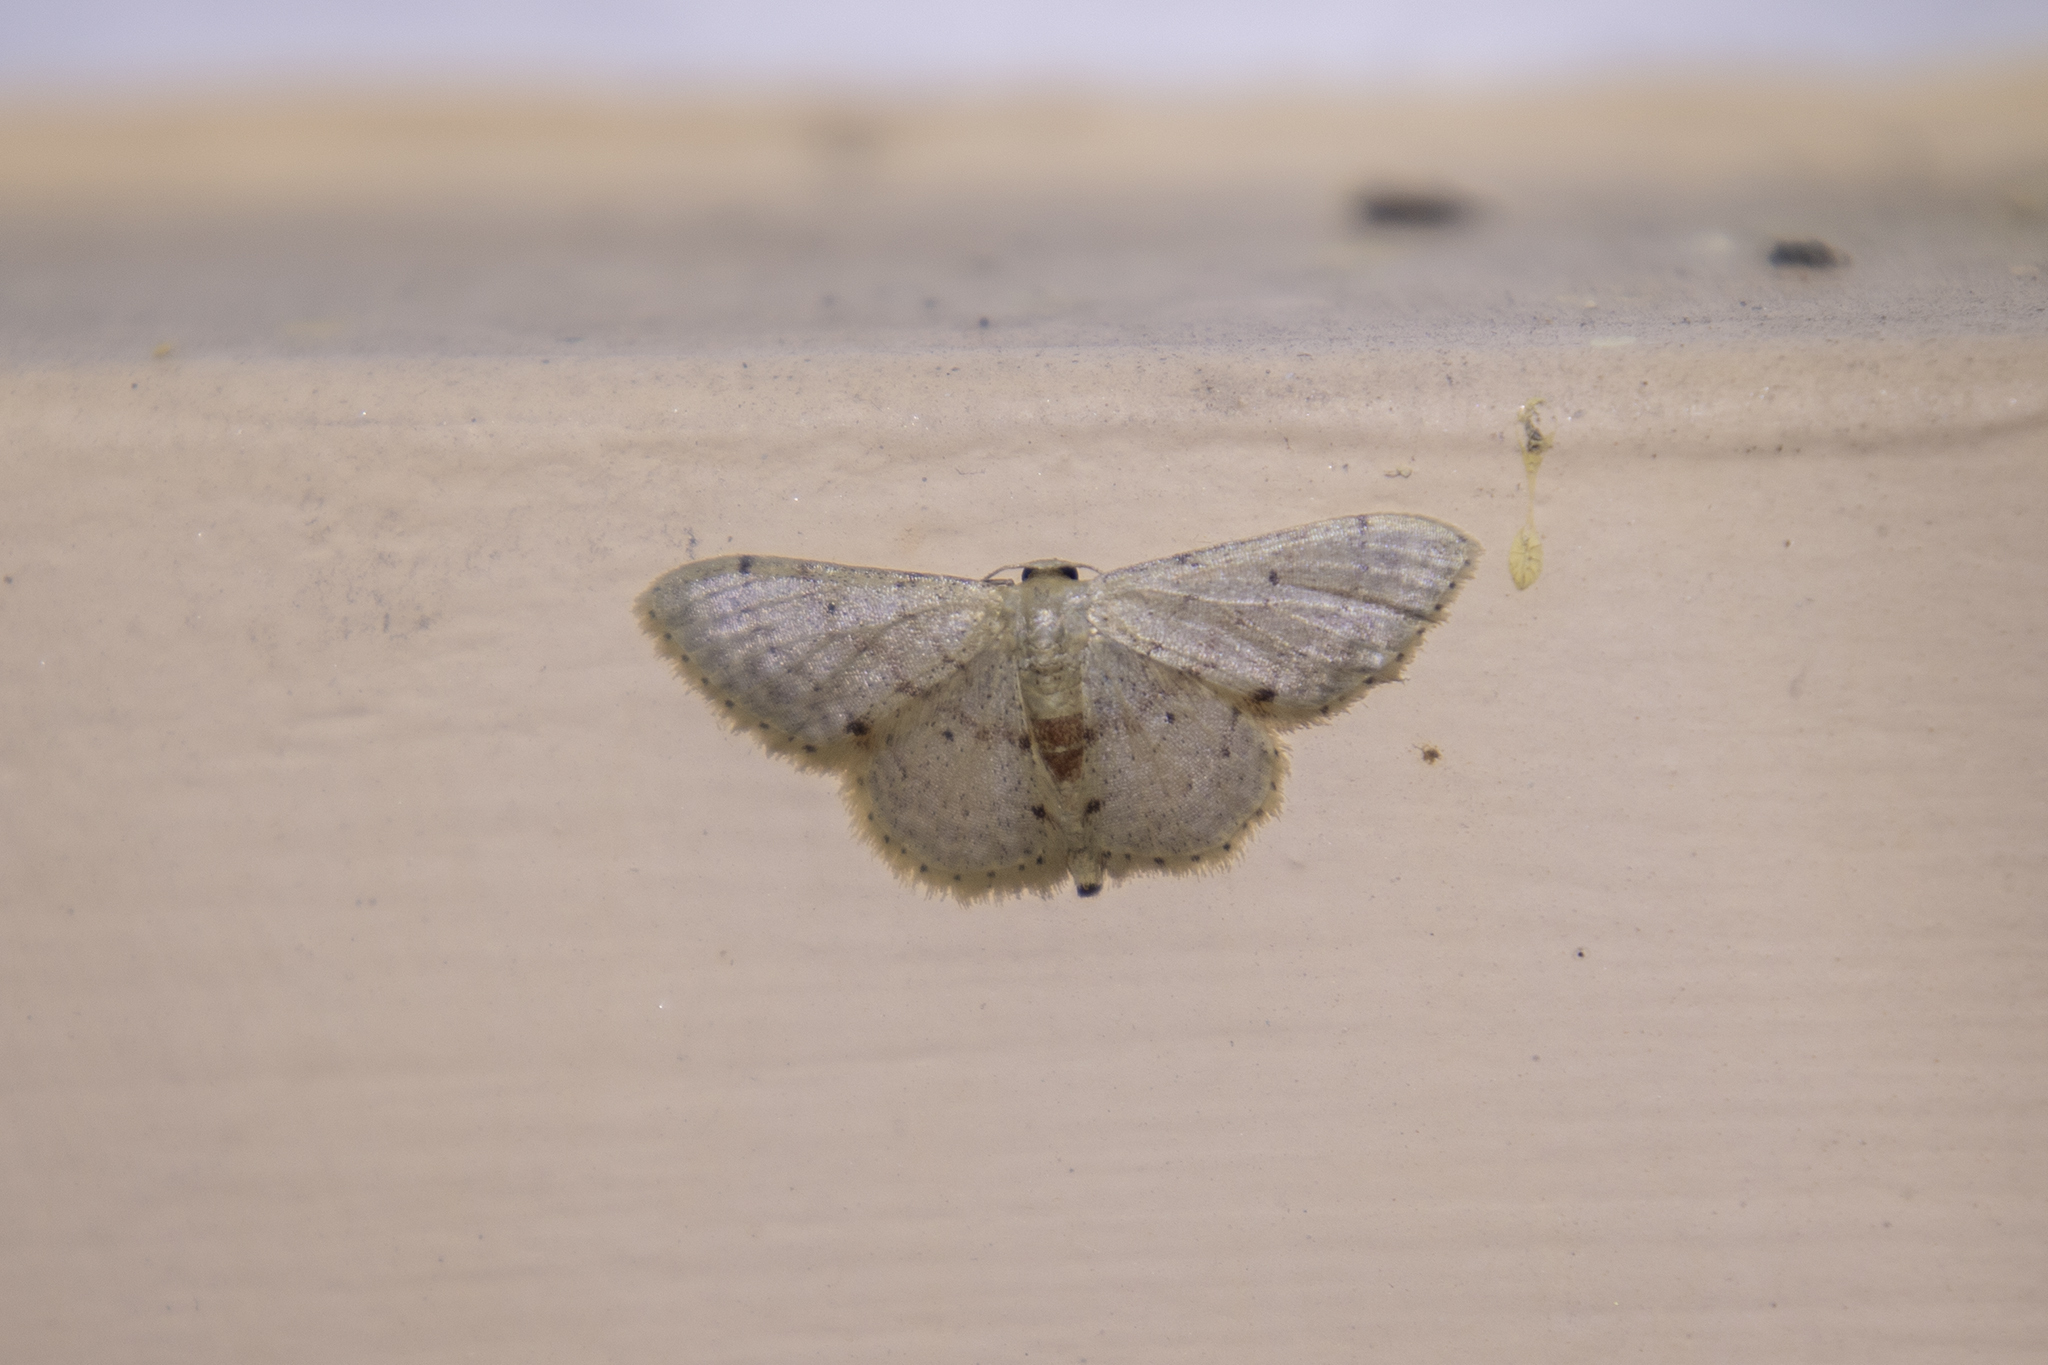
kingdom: Animalia
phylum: Arthropoda
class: Insecta
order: Lepidoptera
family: Geometridae
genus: Idaea
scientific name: Idaea ptyonopoda
